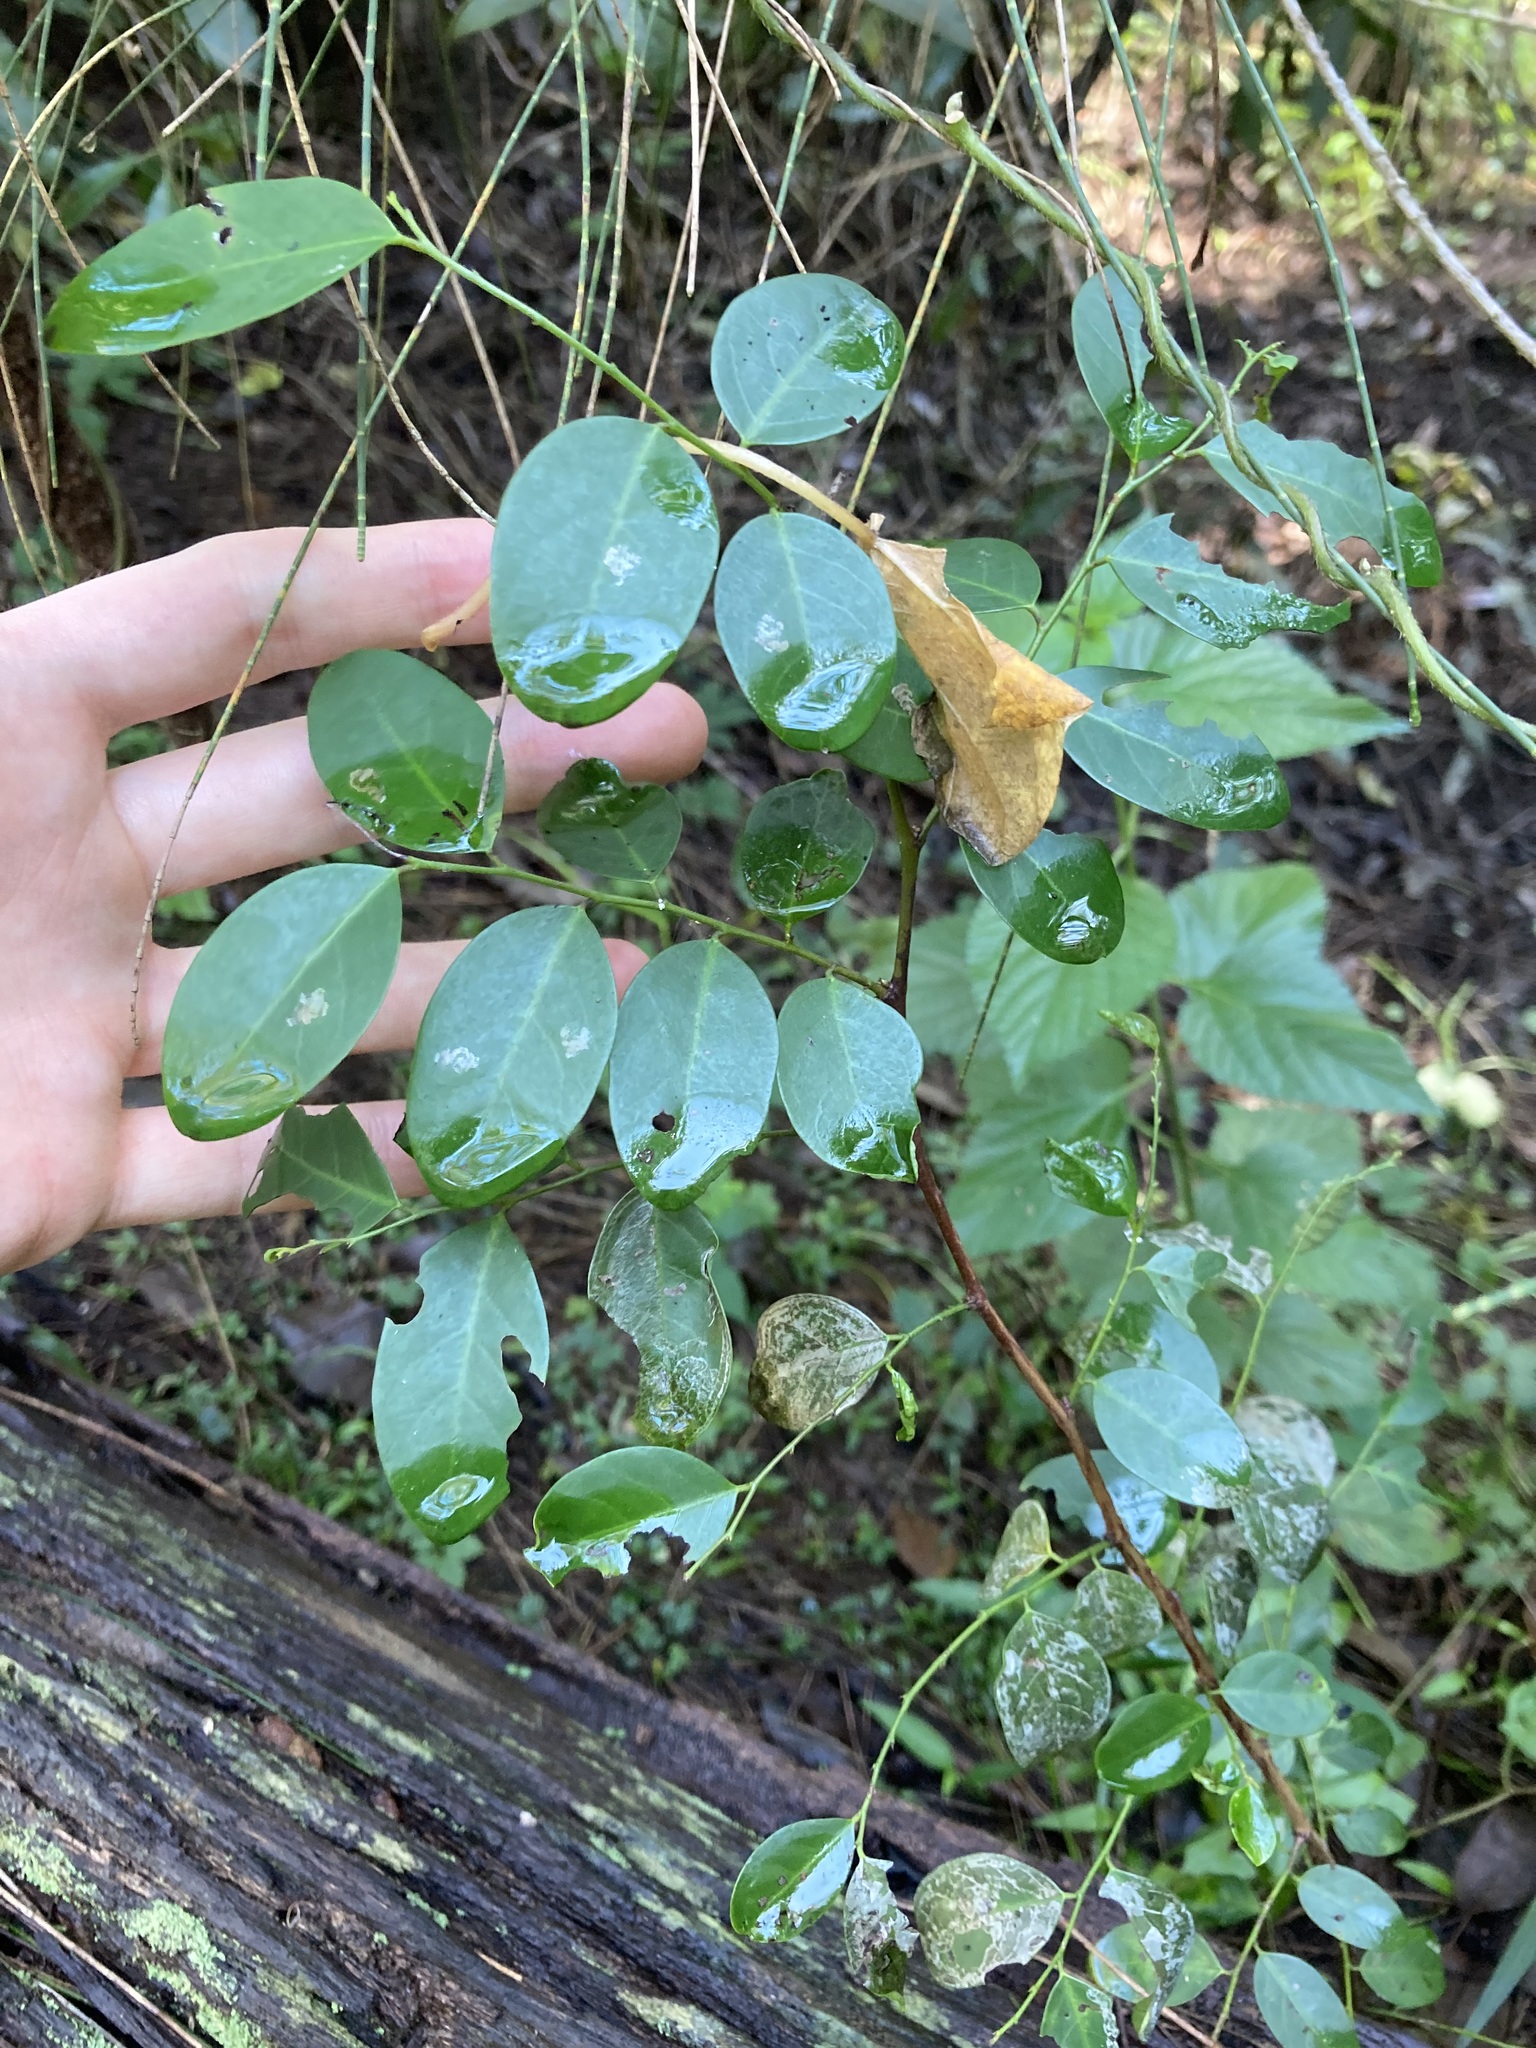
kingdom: Plantae
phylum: Tracheophyta
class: Magnoliopsida
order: Malpighiales
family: Phyllanthaceae
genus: Breynia
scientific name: Breynia oblongifolia
